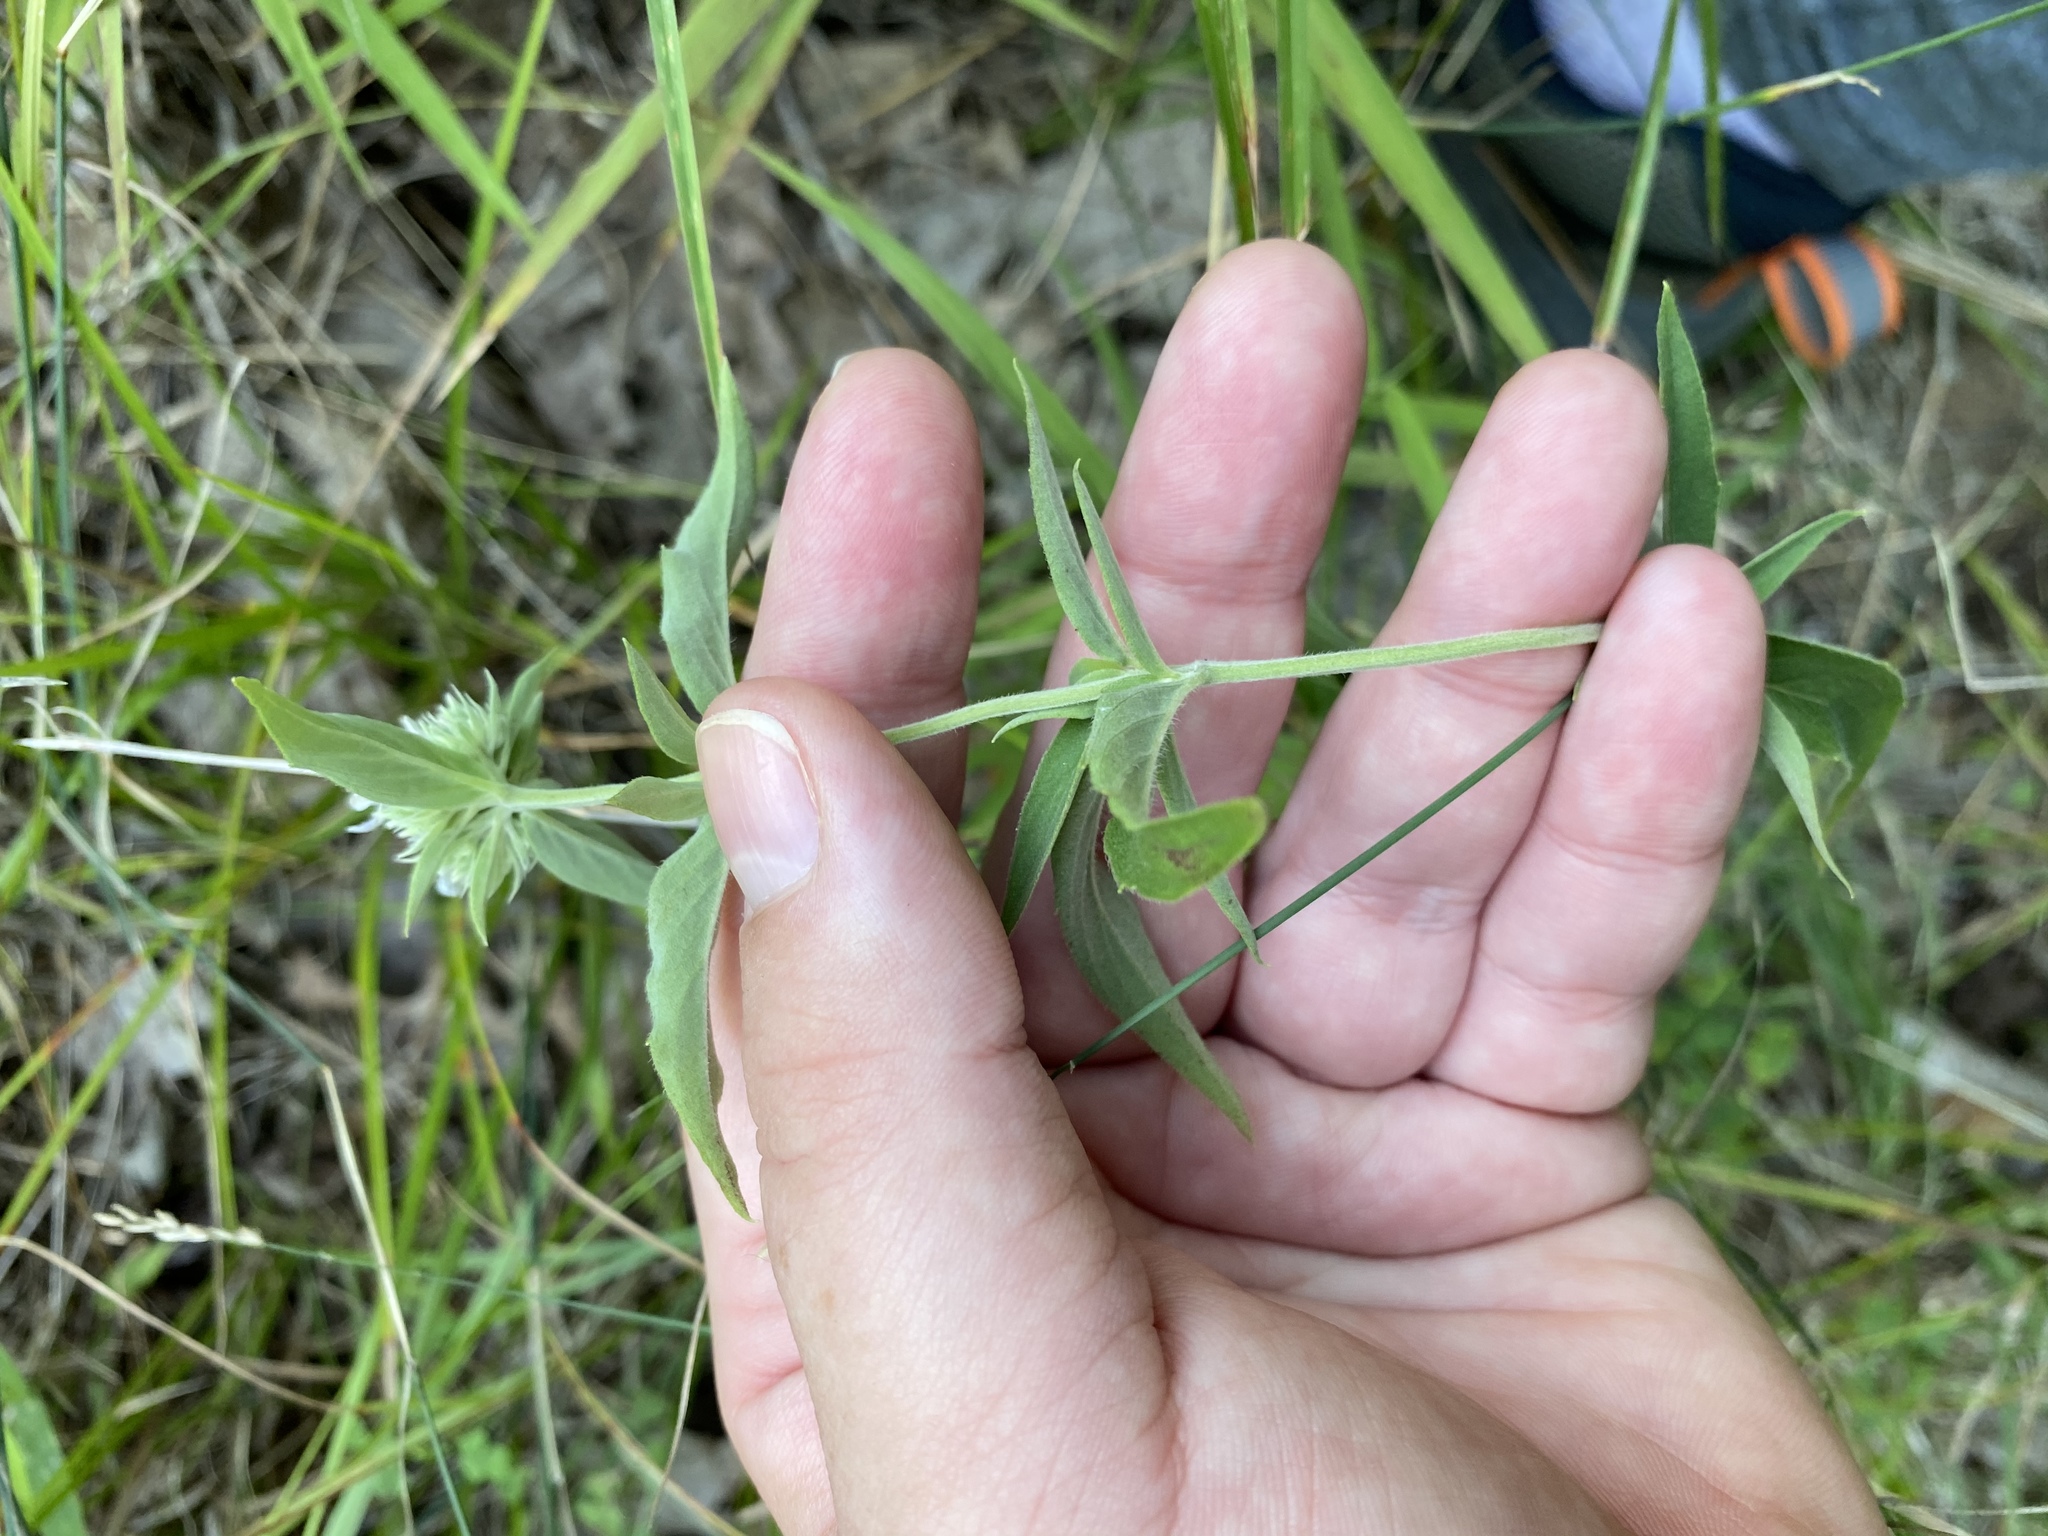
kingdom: Plantae
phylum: Tracheophyta
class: Magnoliopsida
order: Lamiales
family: Lamiaceae
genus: Pycnanthemum
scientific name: Pycnanthemum clinopodioides
